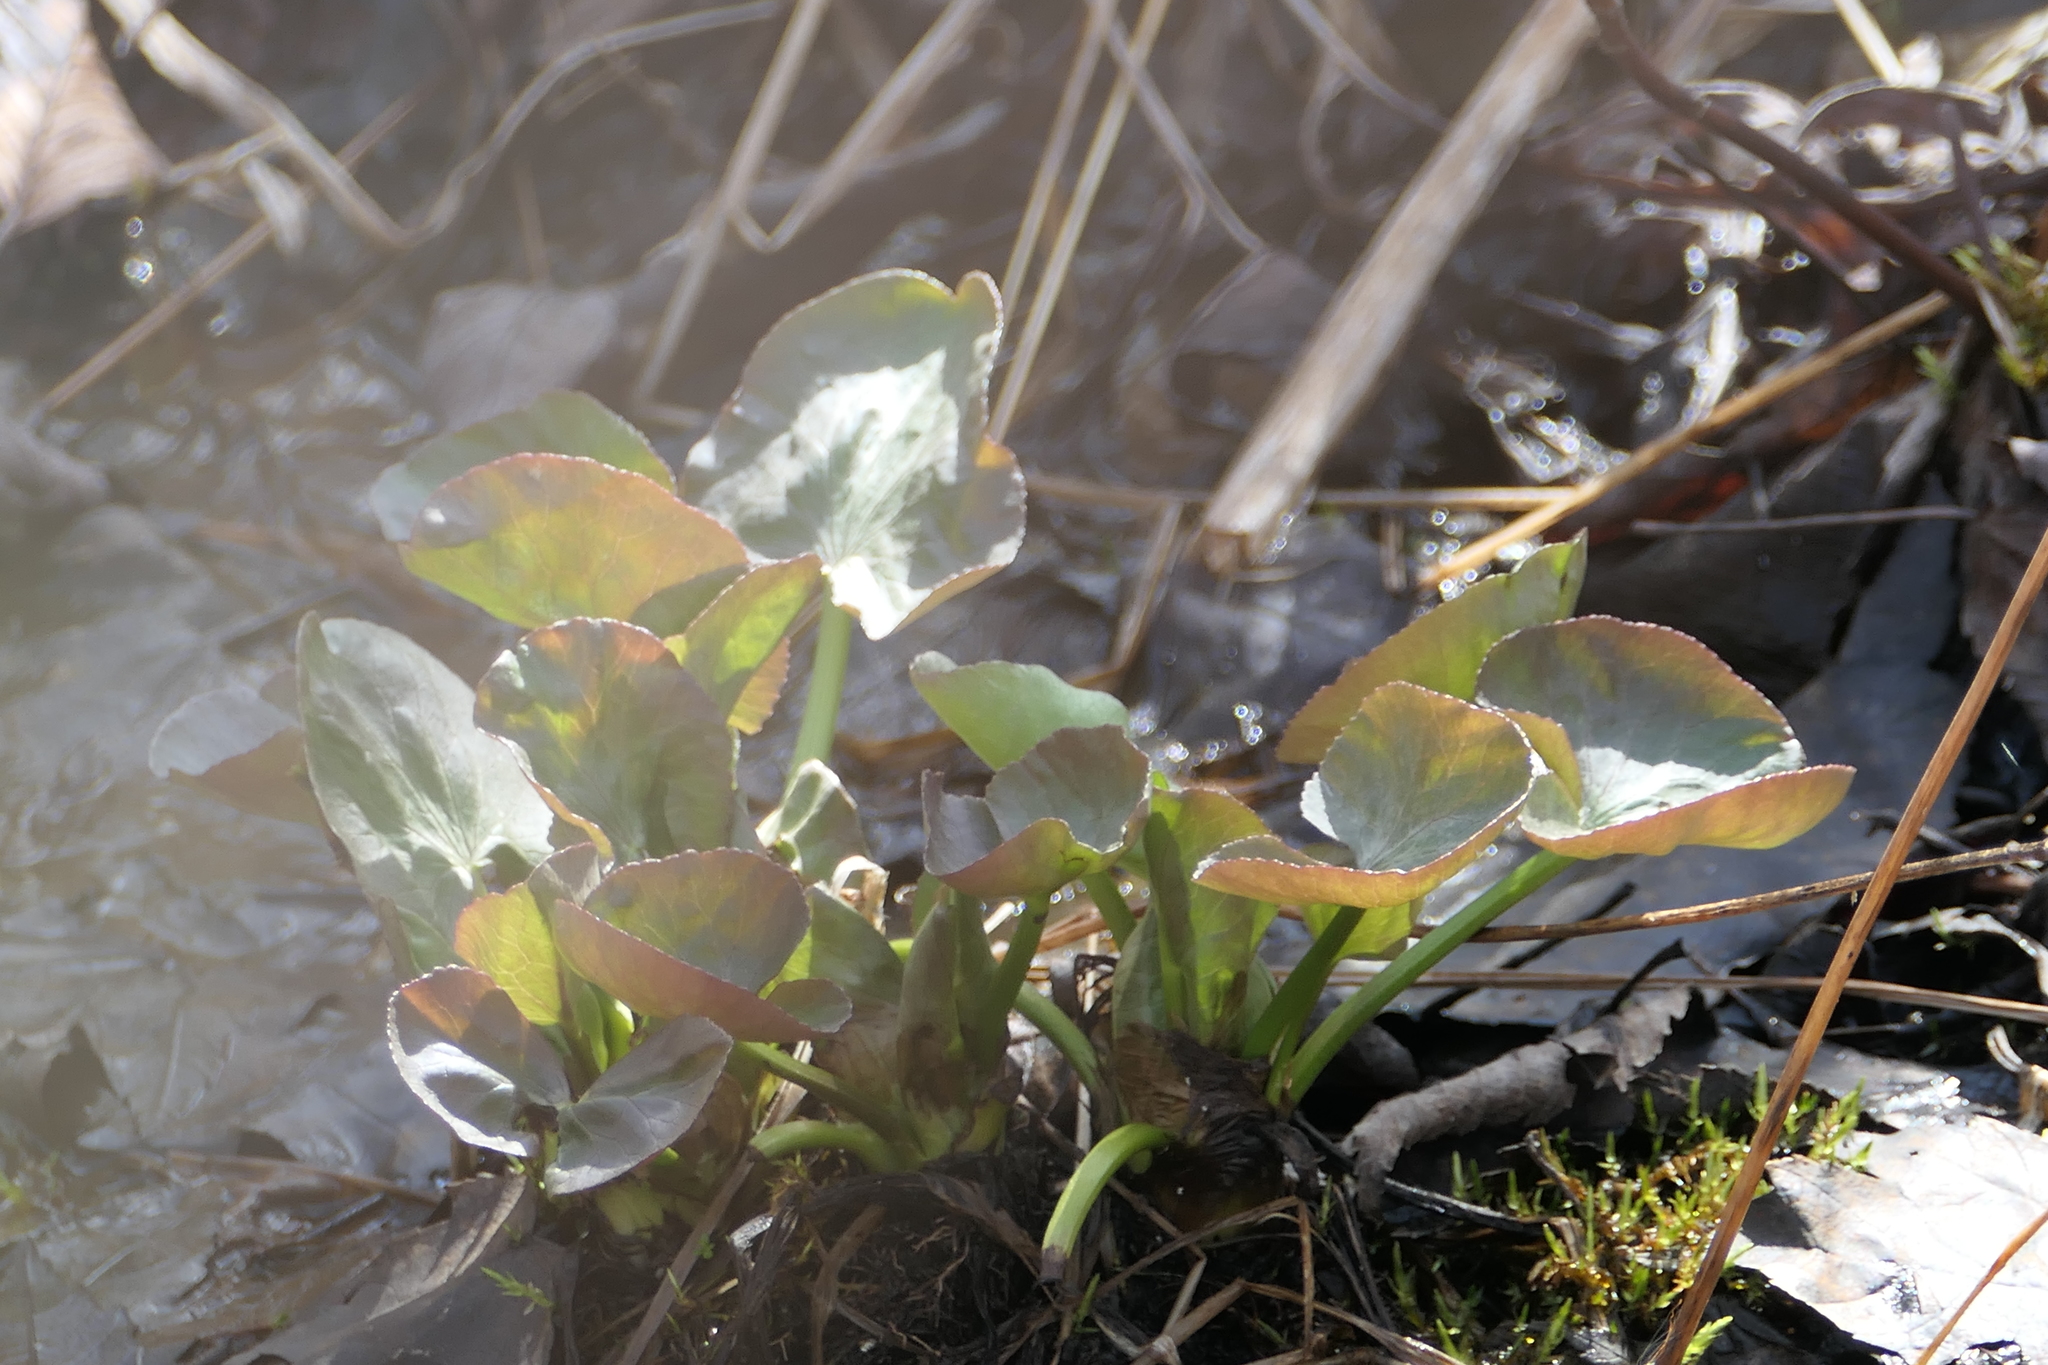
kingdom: Plantae
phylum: Tracheophyta
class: Magnoliopsida
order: Ranunculales
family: Ranunculaceae
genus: Caltha
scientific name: Caltha palustris
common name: Marsh marigold
